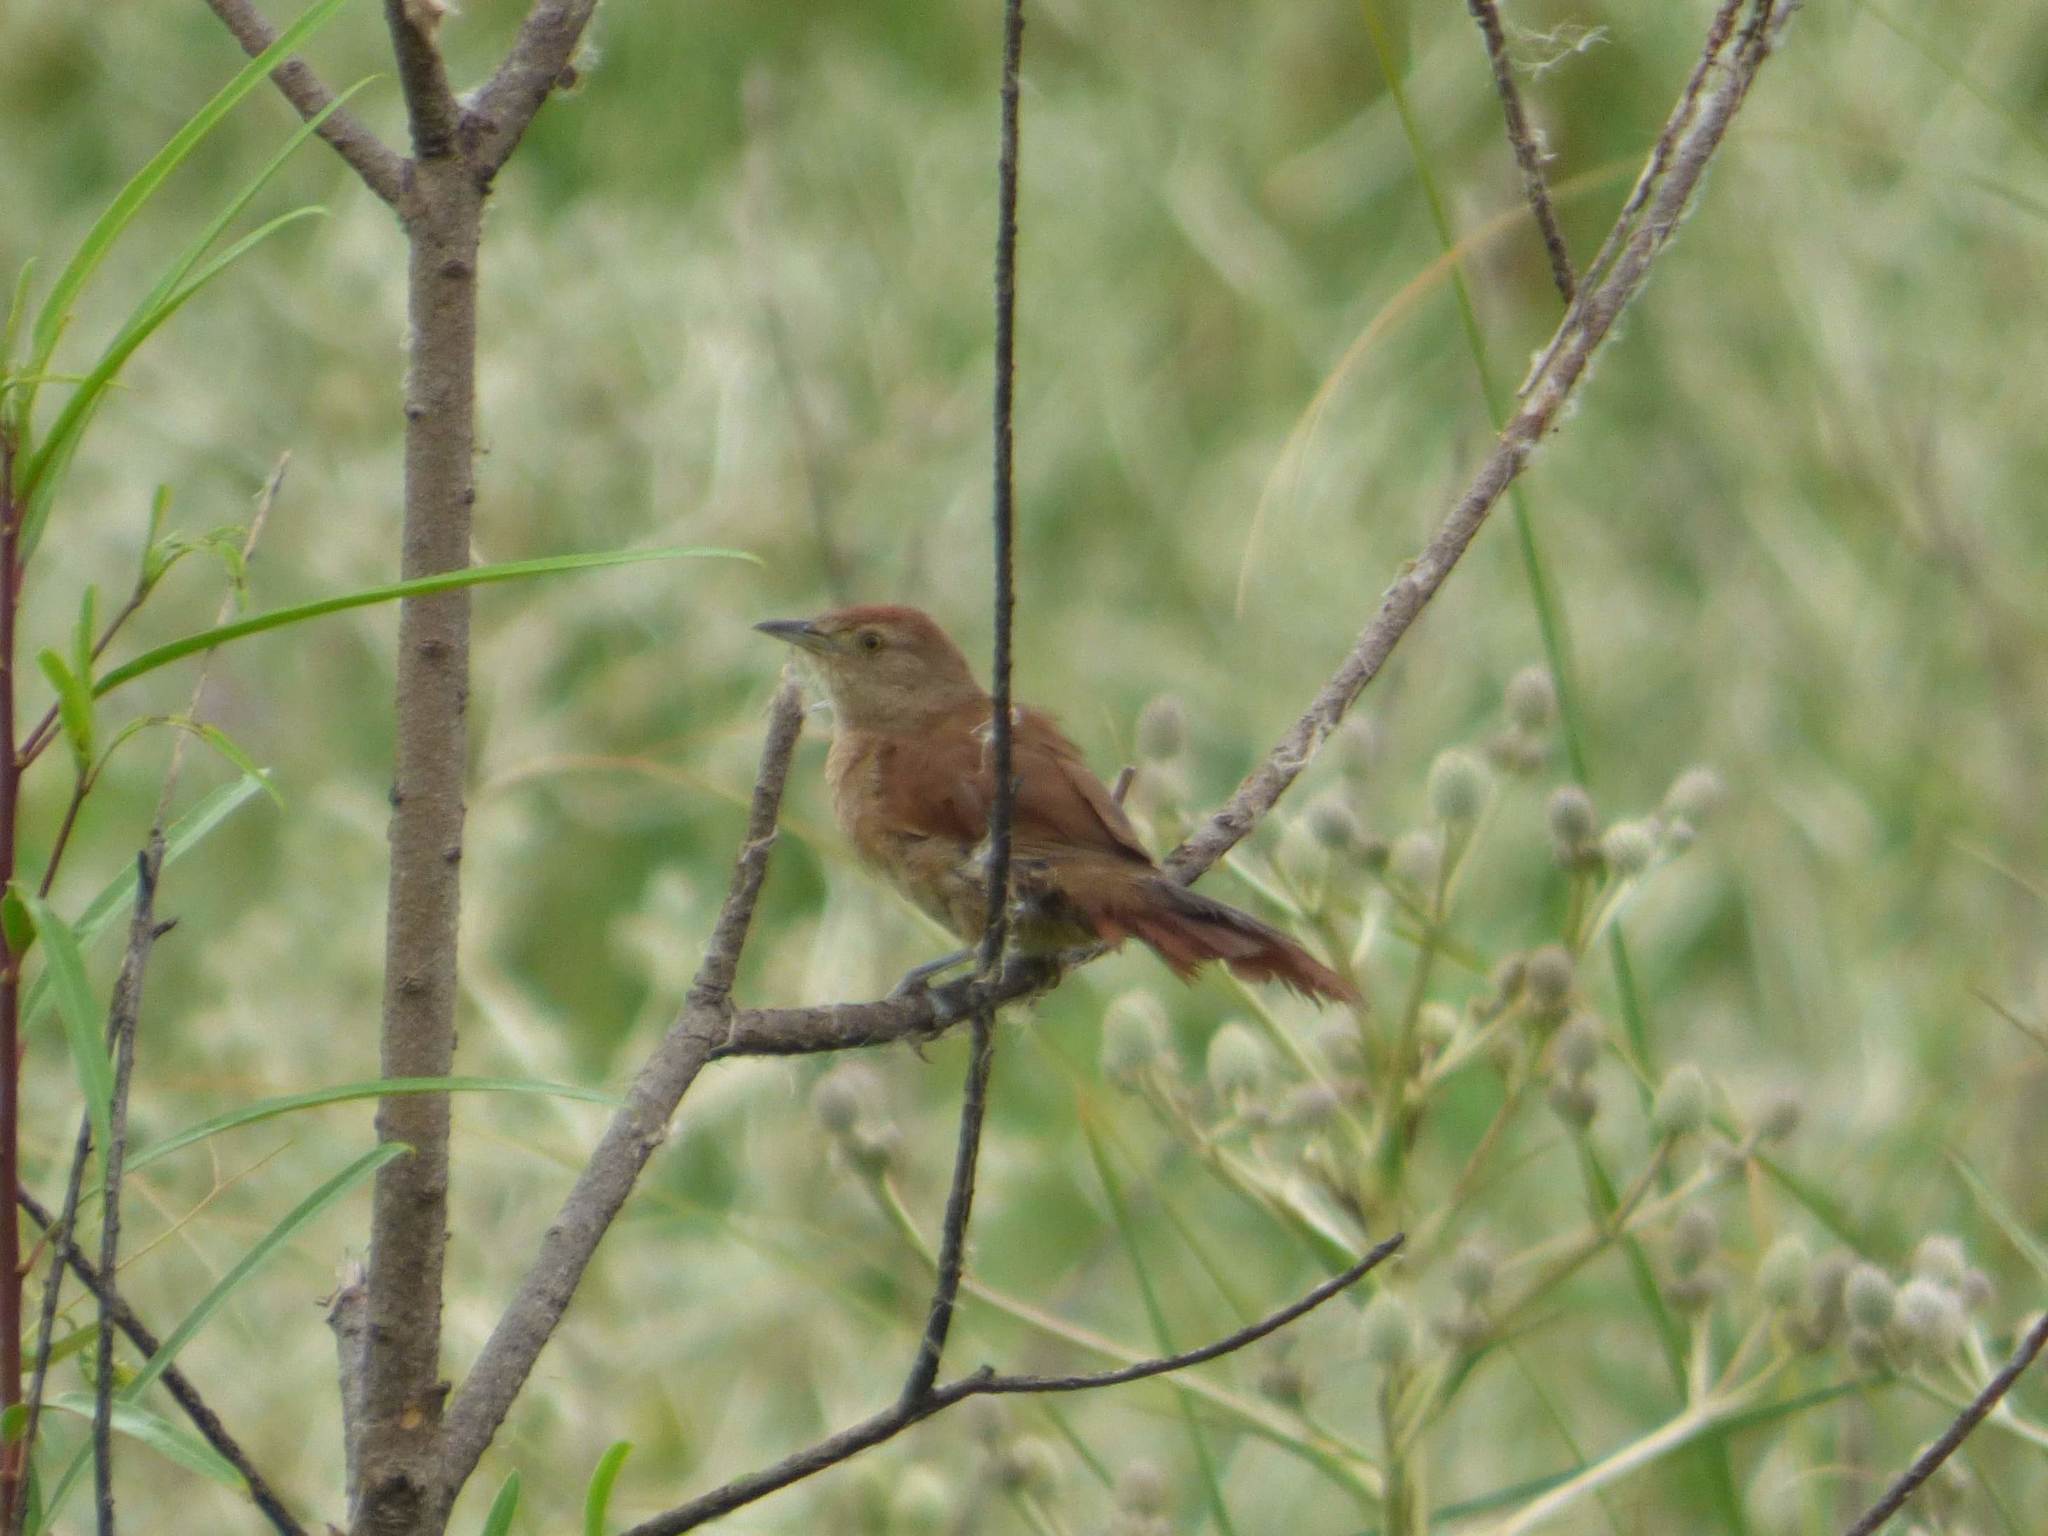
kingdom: Animalia
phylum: Chordata
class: Aves
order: Passeriformes
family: Furnariidae
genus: Phacellodomus
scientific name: Phacellodomus striaticollis
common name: Freckle-breasted thornbird
